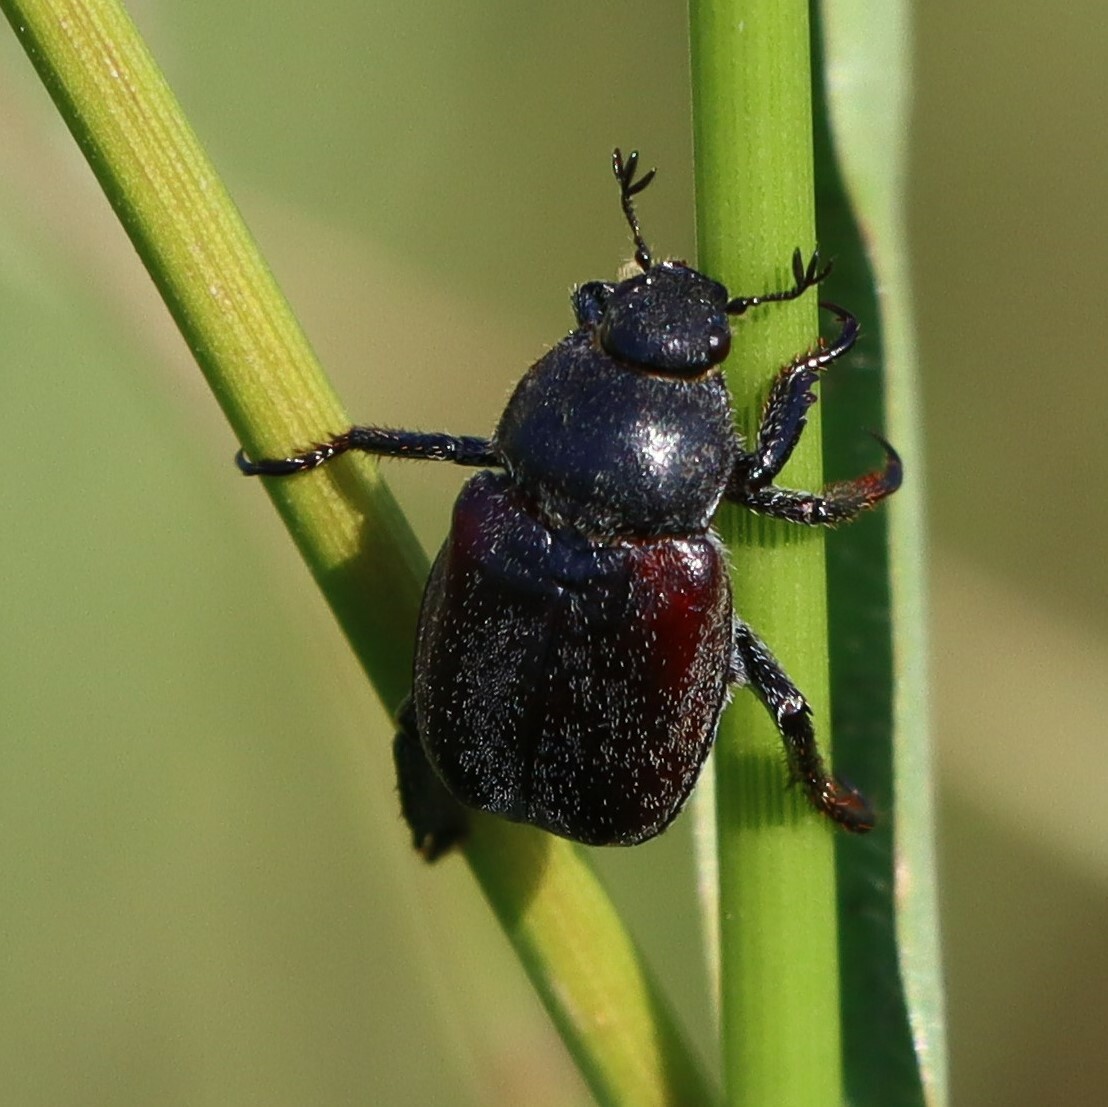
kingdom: Animalia
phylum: Arthropoda
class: Insecta
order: Coleoptera
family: Scarabaeidae
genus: Hoplia
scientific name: Hoplia philanthus
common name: Welsh chafer
